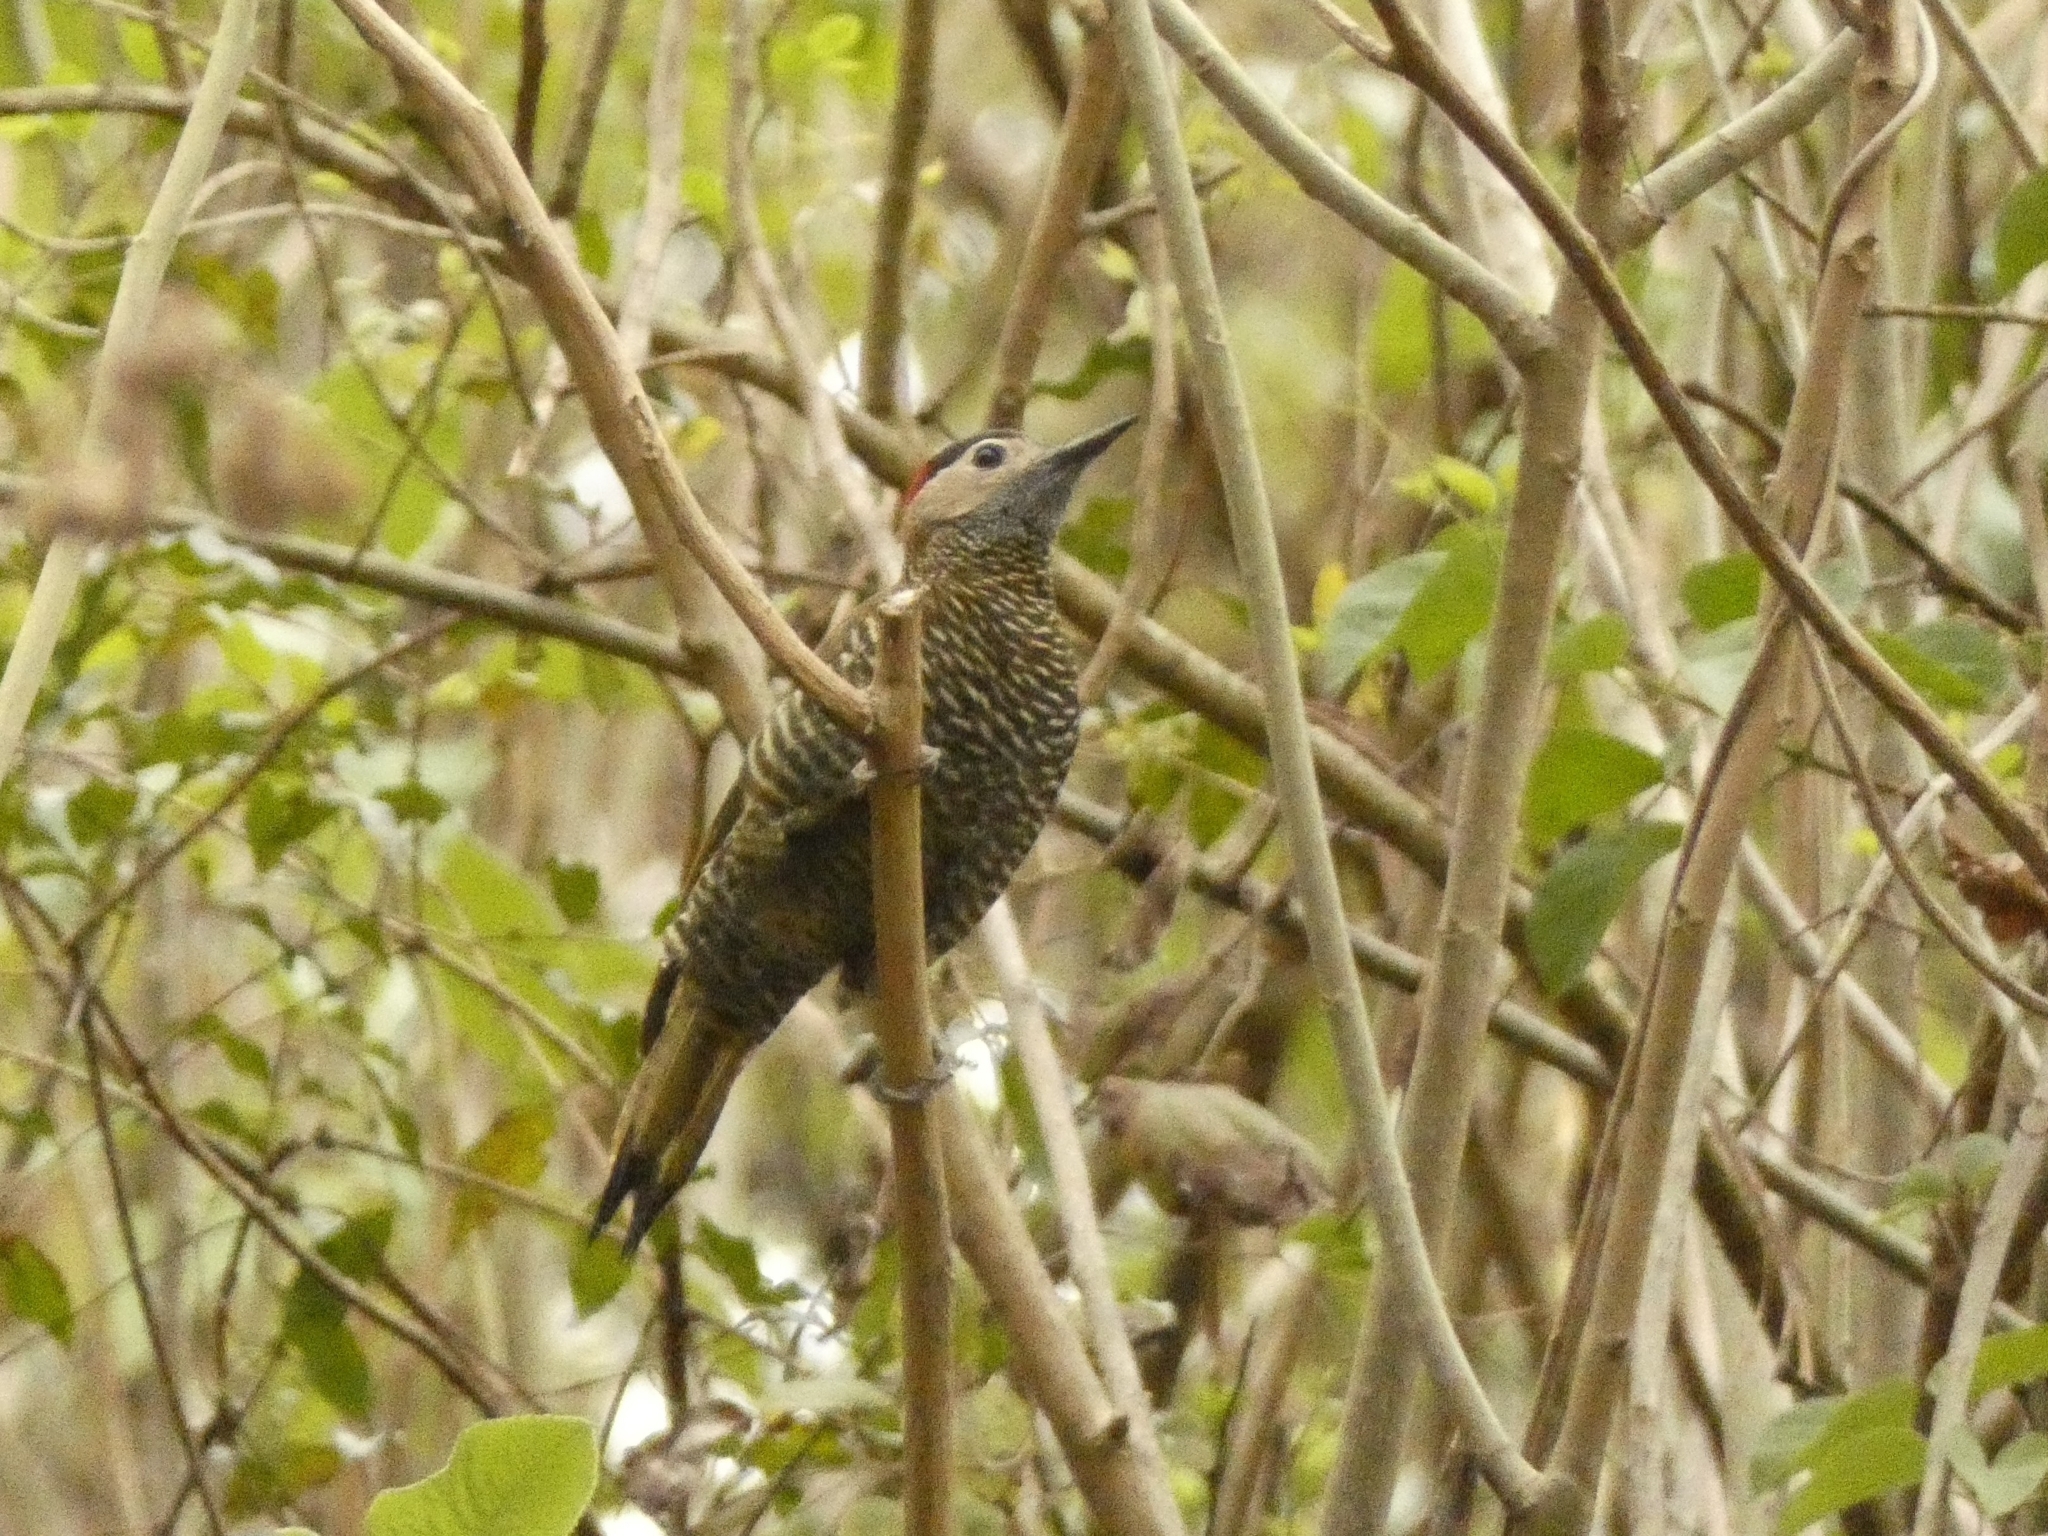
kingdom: Animalia
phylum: Chordata
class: Aves
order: Piciformes
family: Picidae
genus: Colaptes
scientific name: Colaptes rubiginosus
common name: Golden-olive woodpecker
